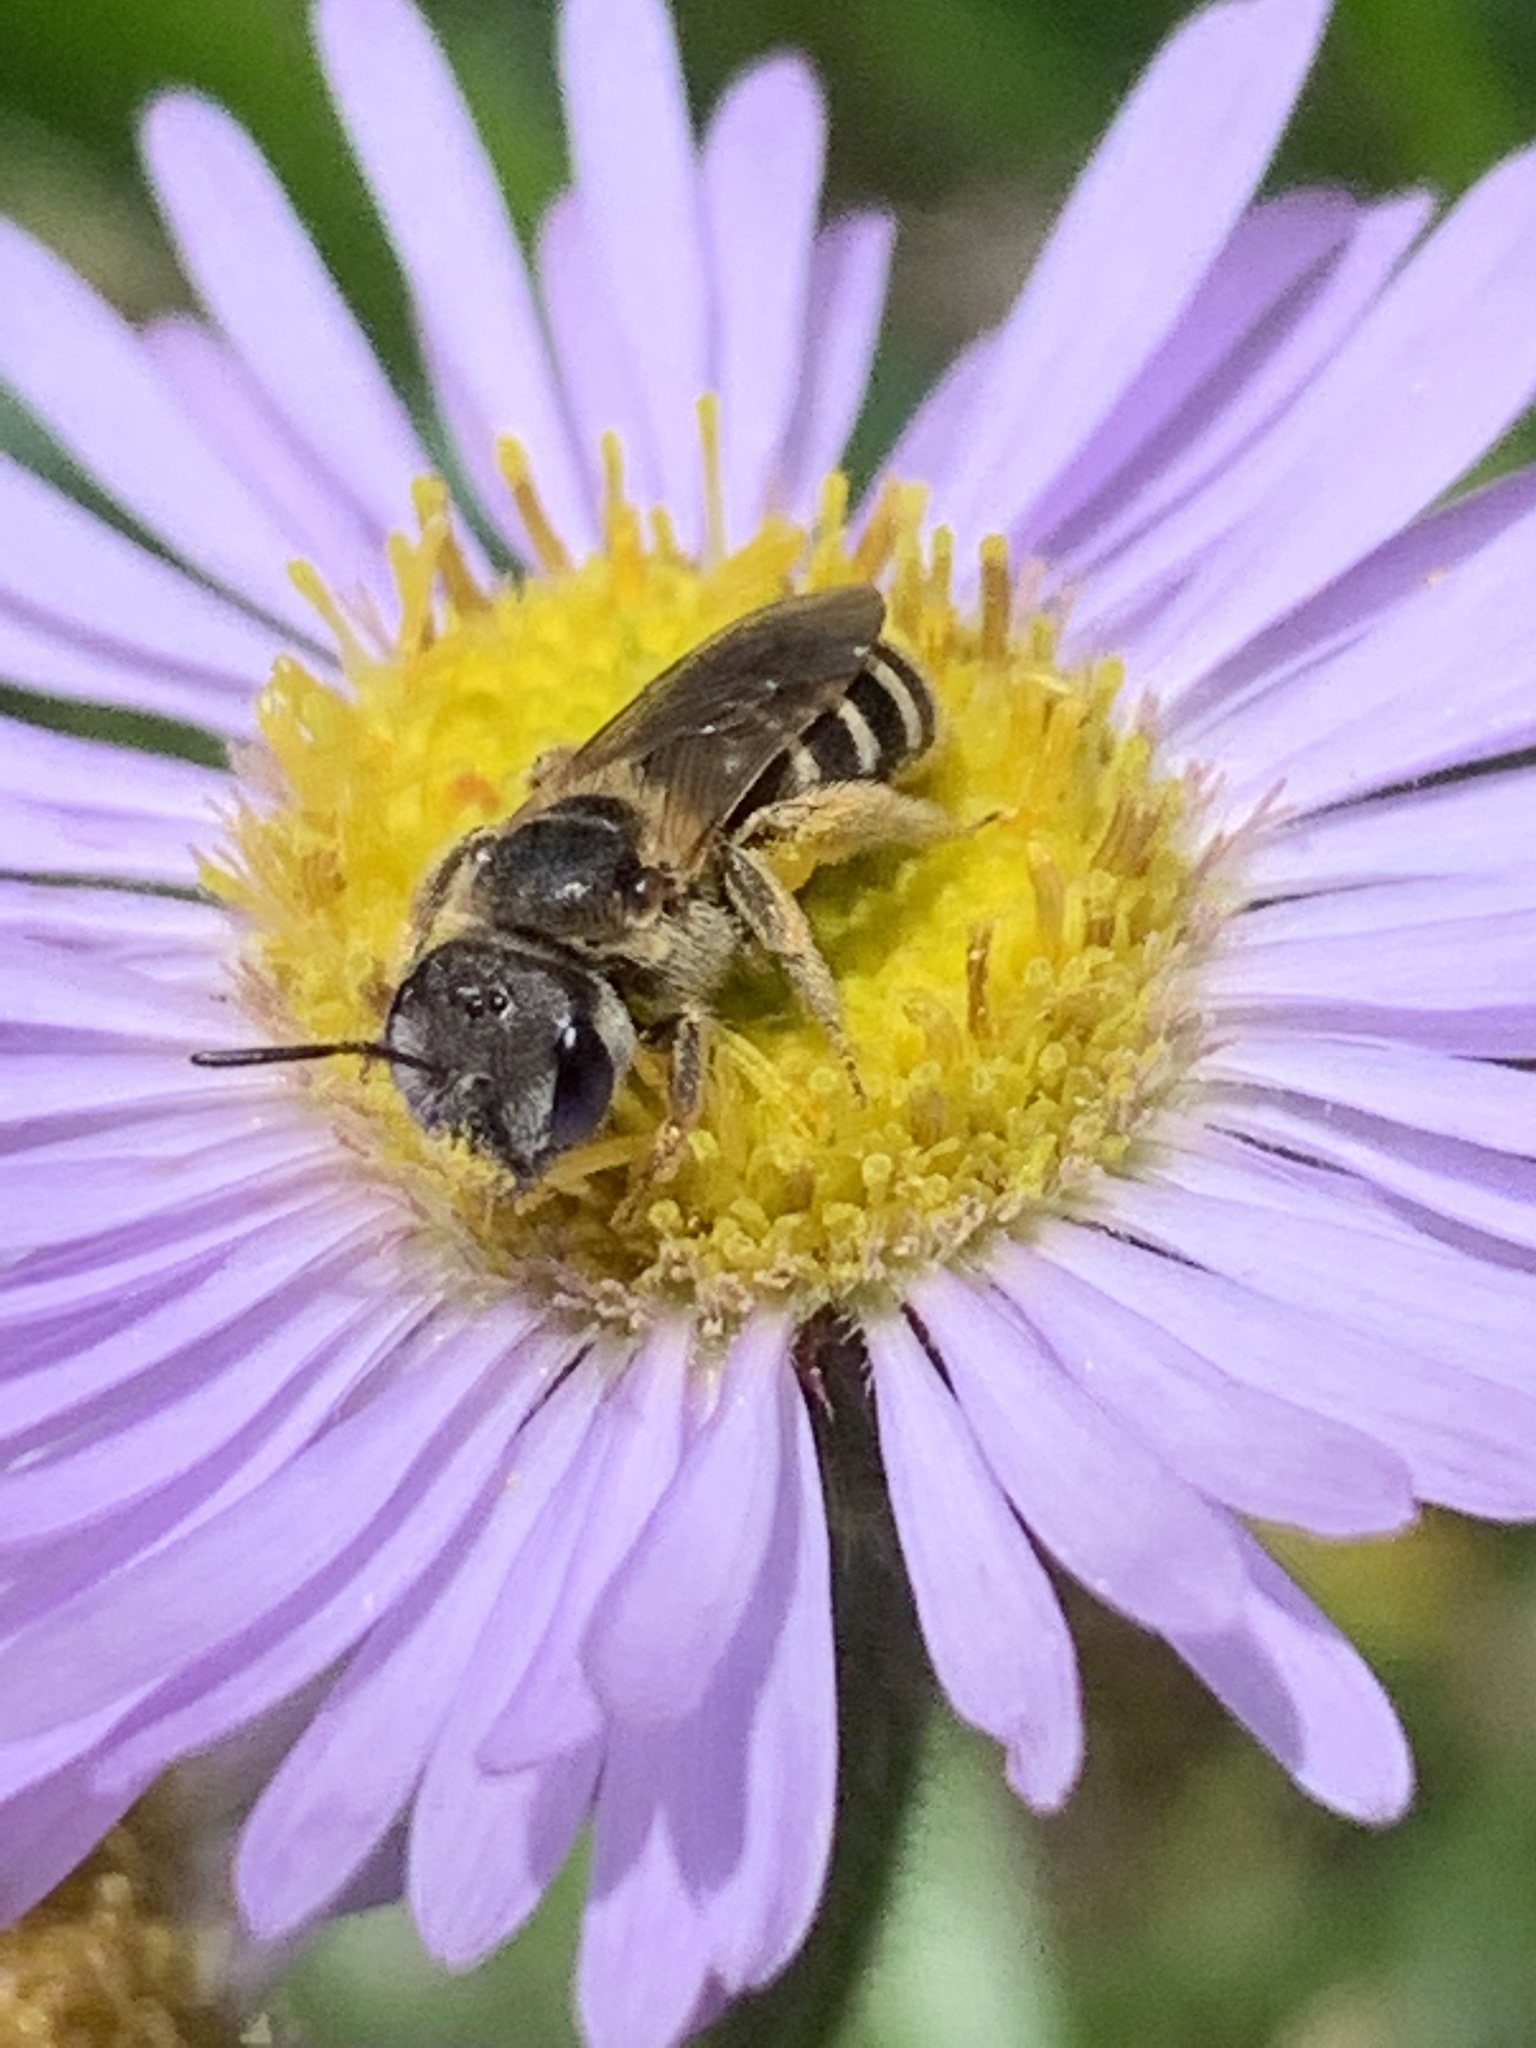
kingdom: Animalia
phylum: Arthropoda
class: Insecta
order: Hymenoptera
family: Halictidae
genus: Halictus
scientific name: Halictus ligatus
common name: Ligated furrow bee
